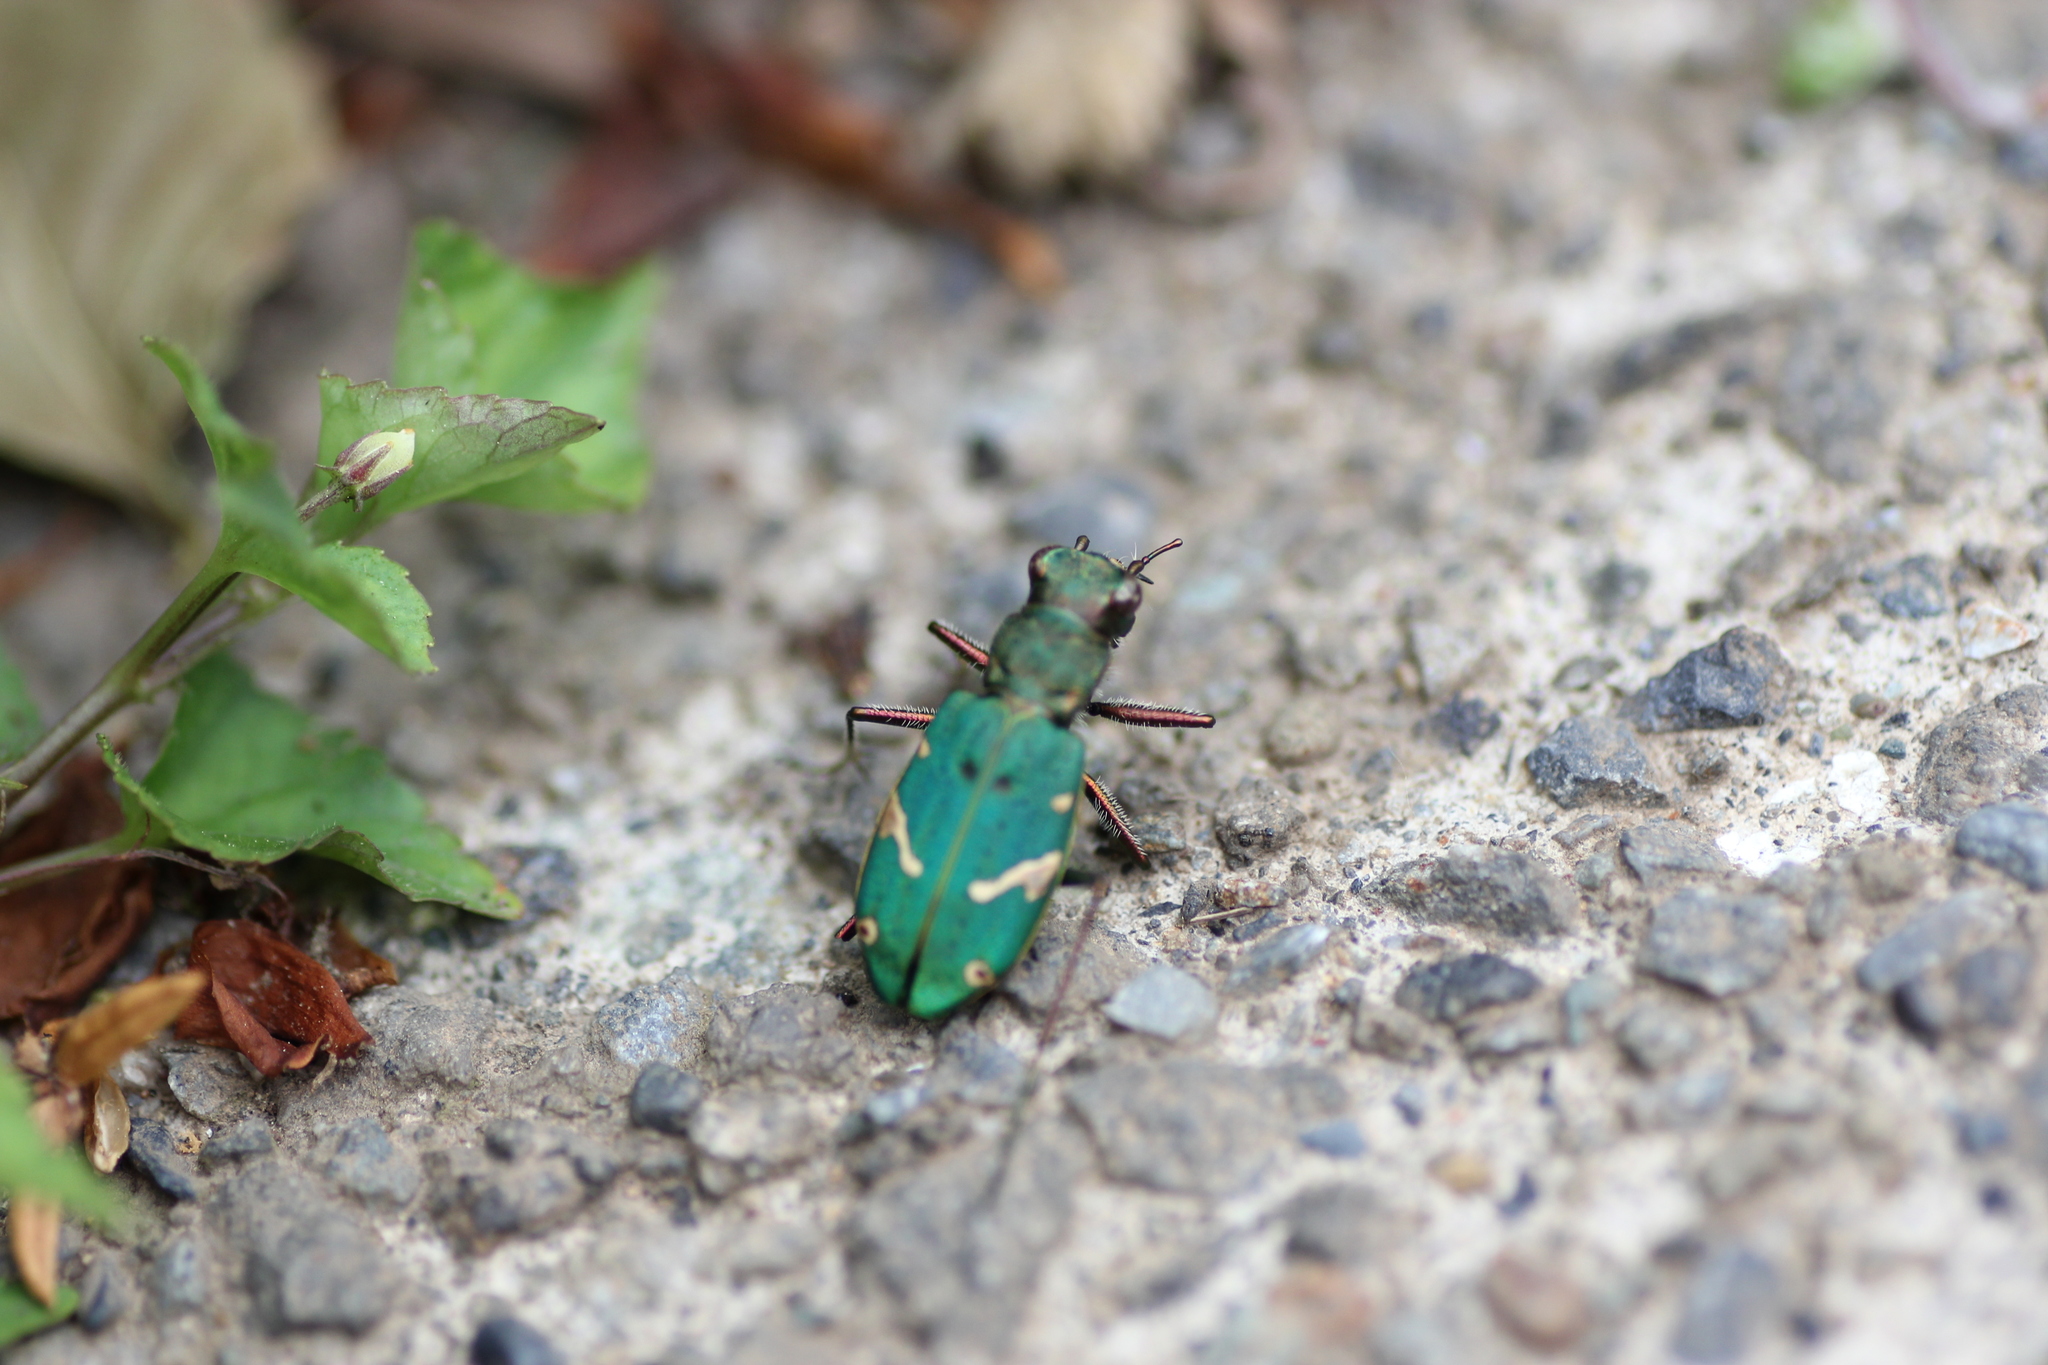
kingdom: Animalia
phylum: Arthropoda
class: Insecta
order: Coleoptera
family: Carabidae
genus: Cicindela
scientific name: Cicindela japana
